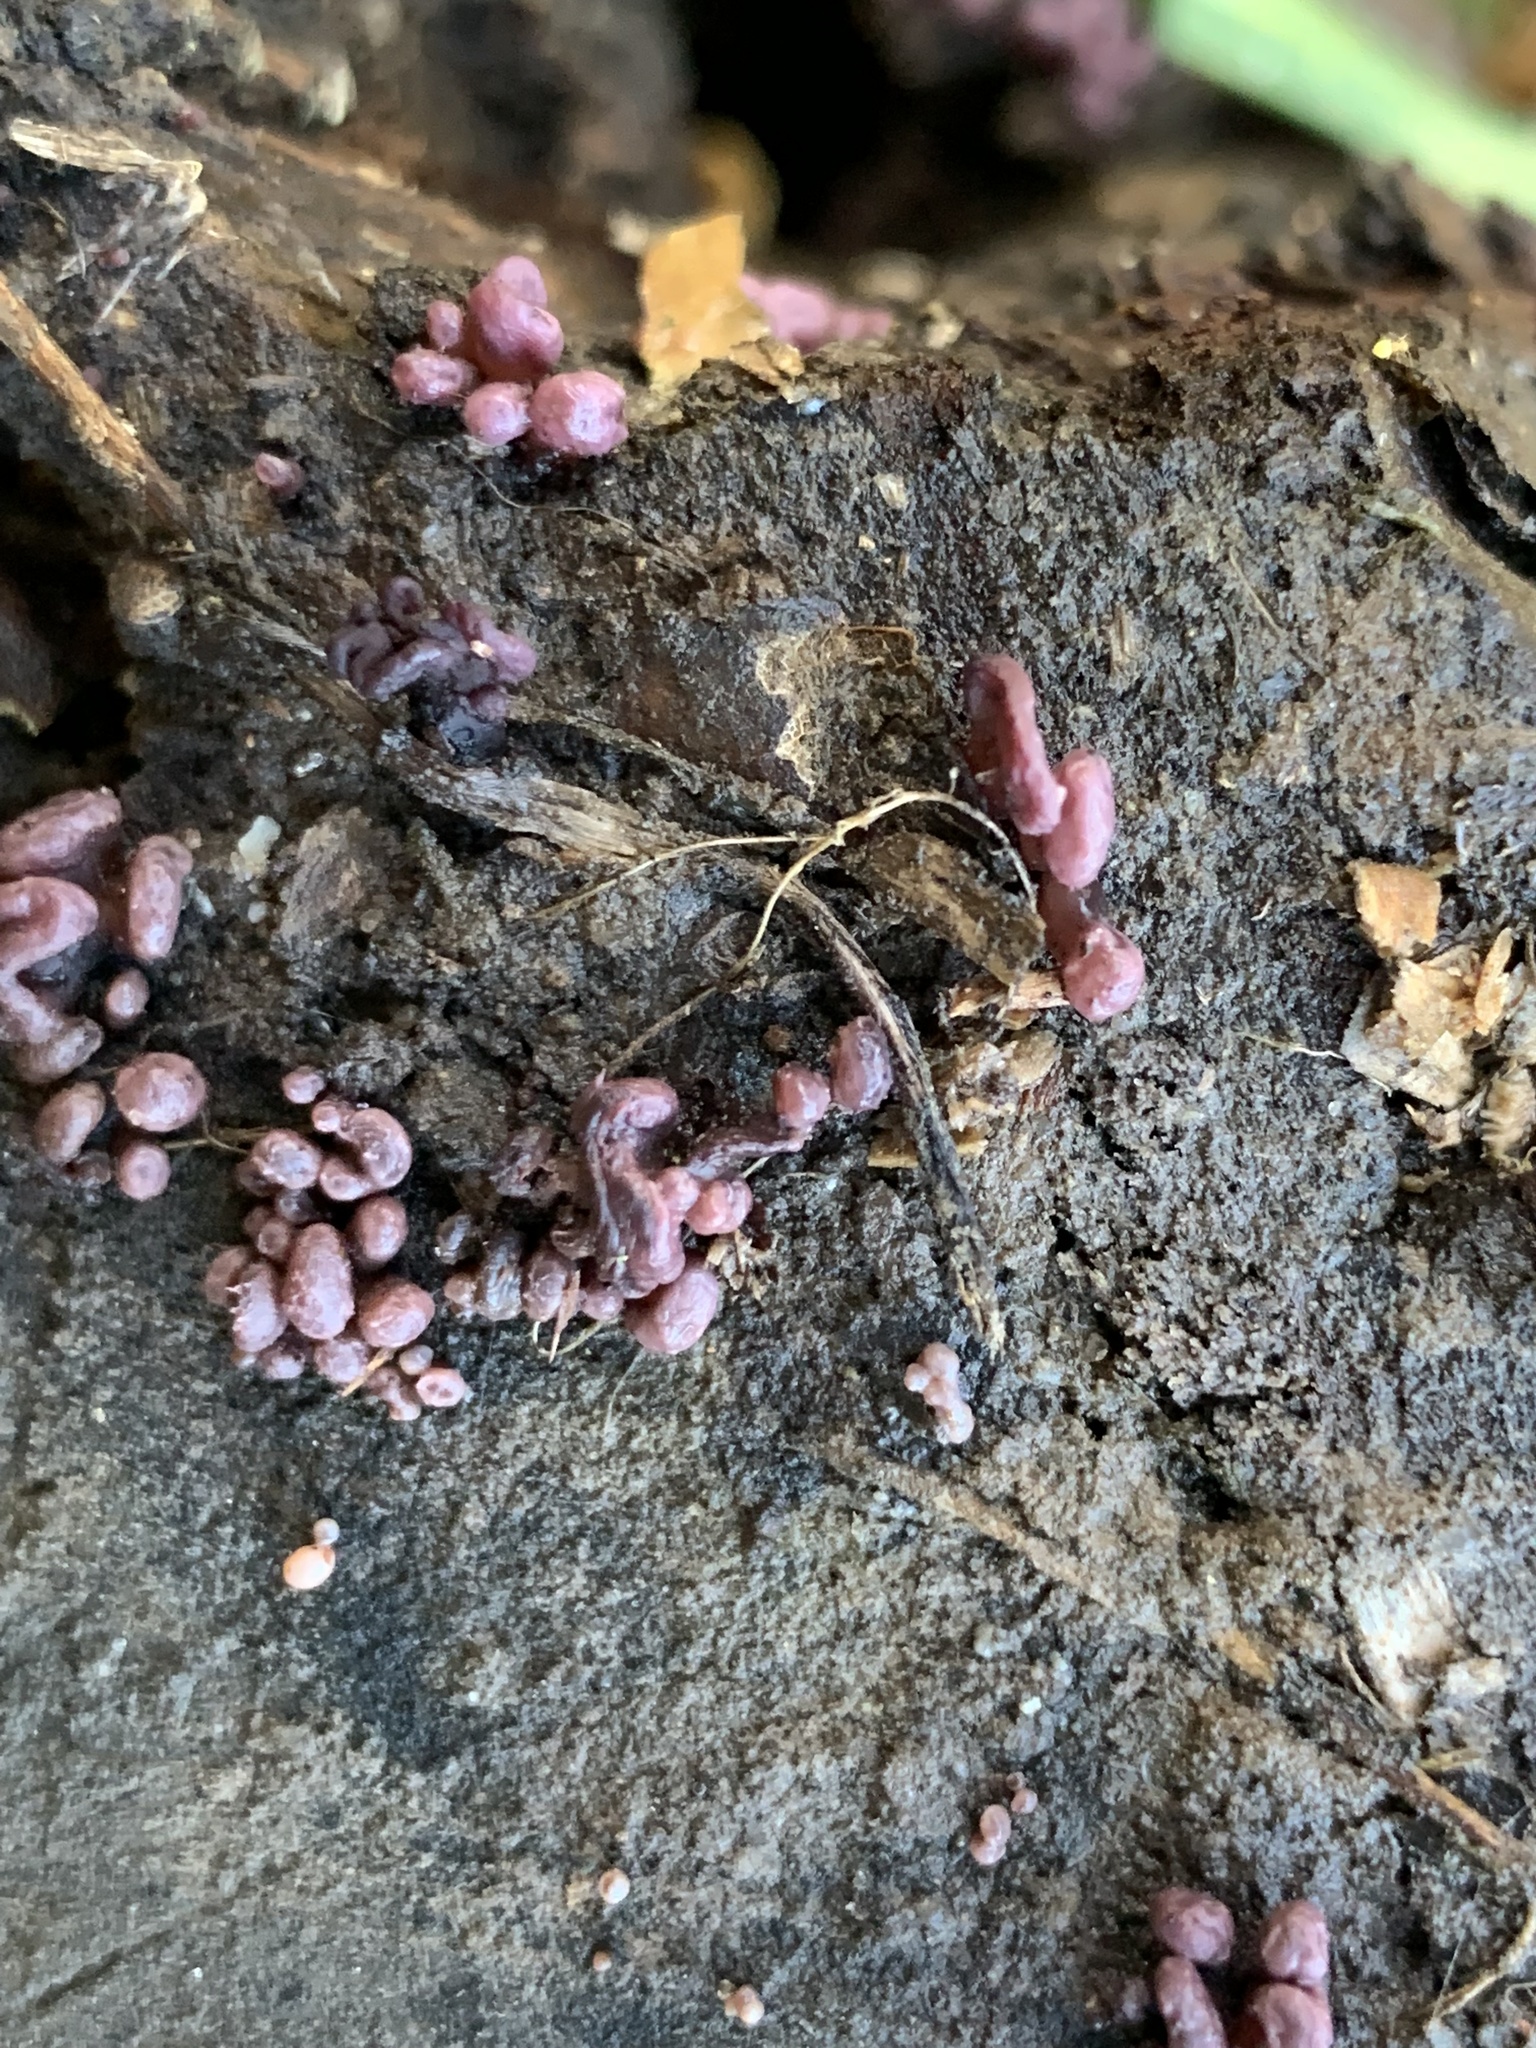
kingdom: Fungi
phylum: Ascomycota
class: Leotiomycetes
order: Helotiales
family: Gelatinodiscaceae
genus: Ascocoryne
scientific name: Ascocoryne sarcoides
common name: Purple jellydisc
